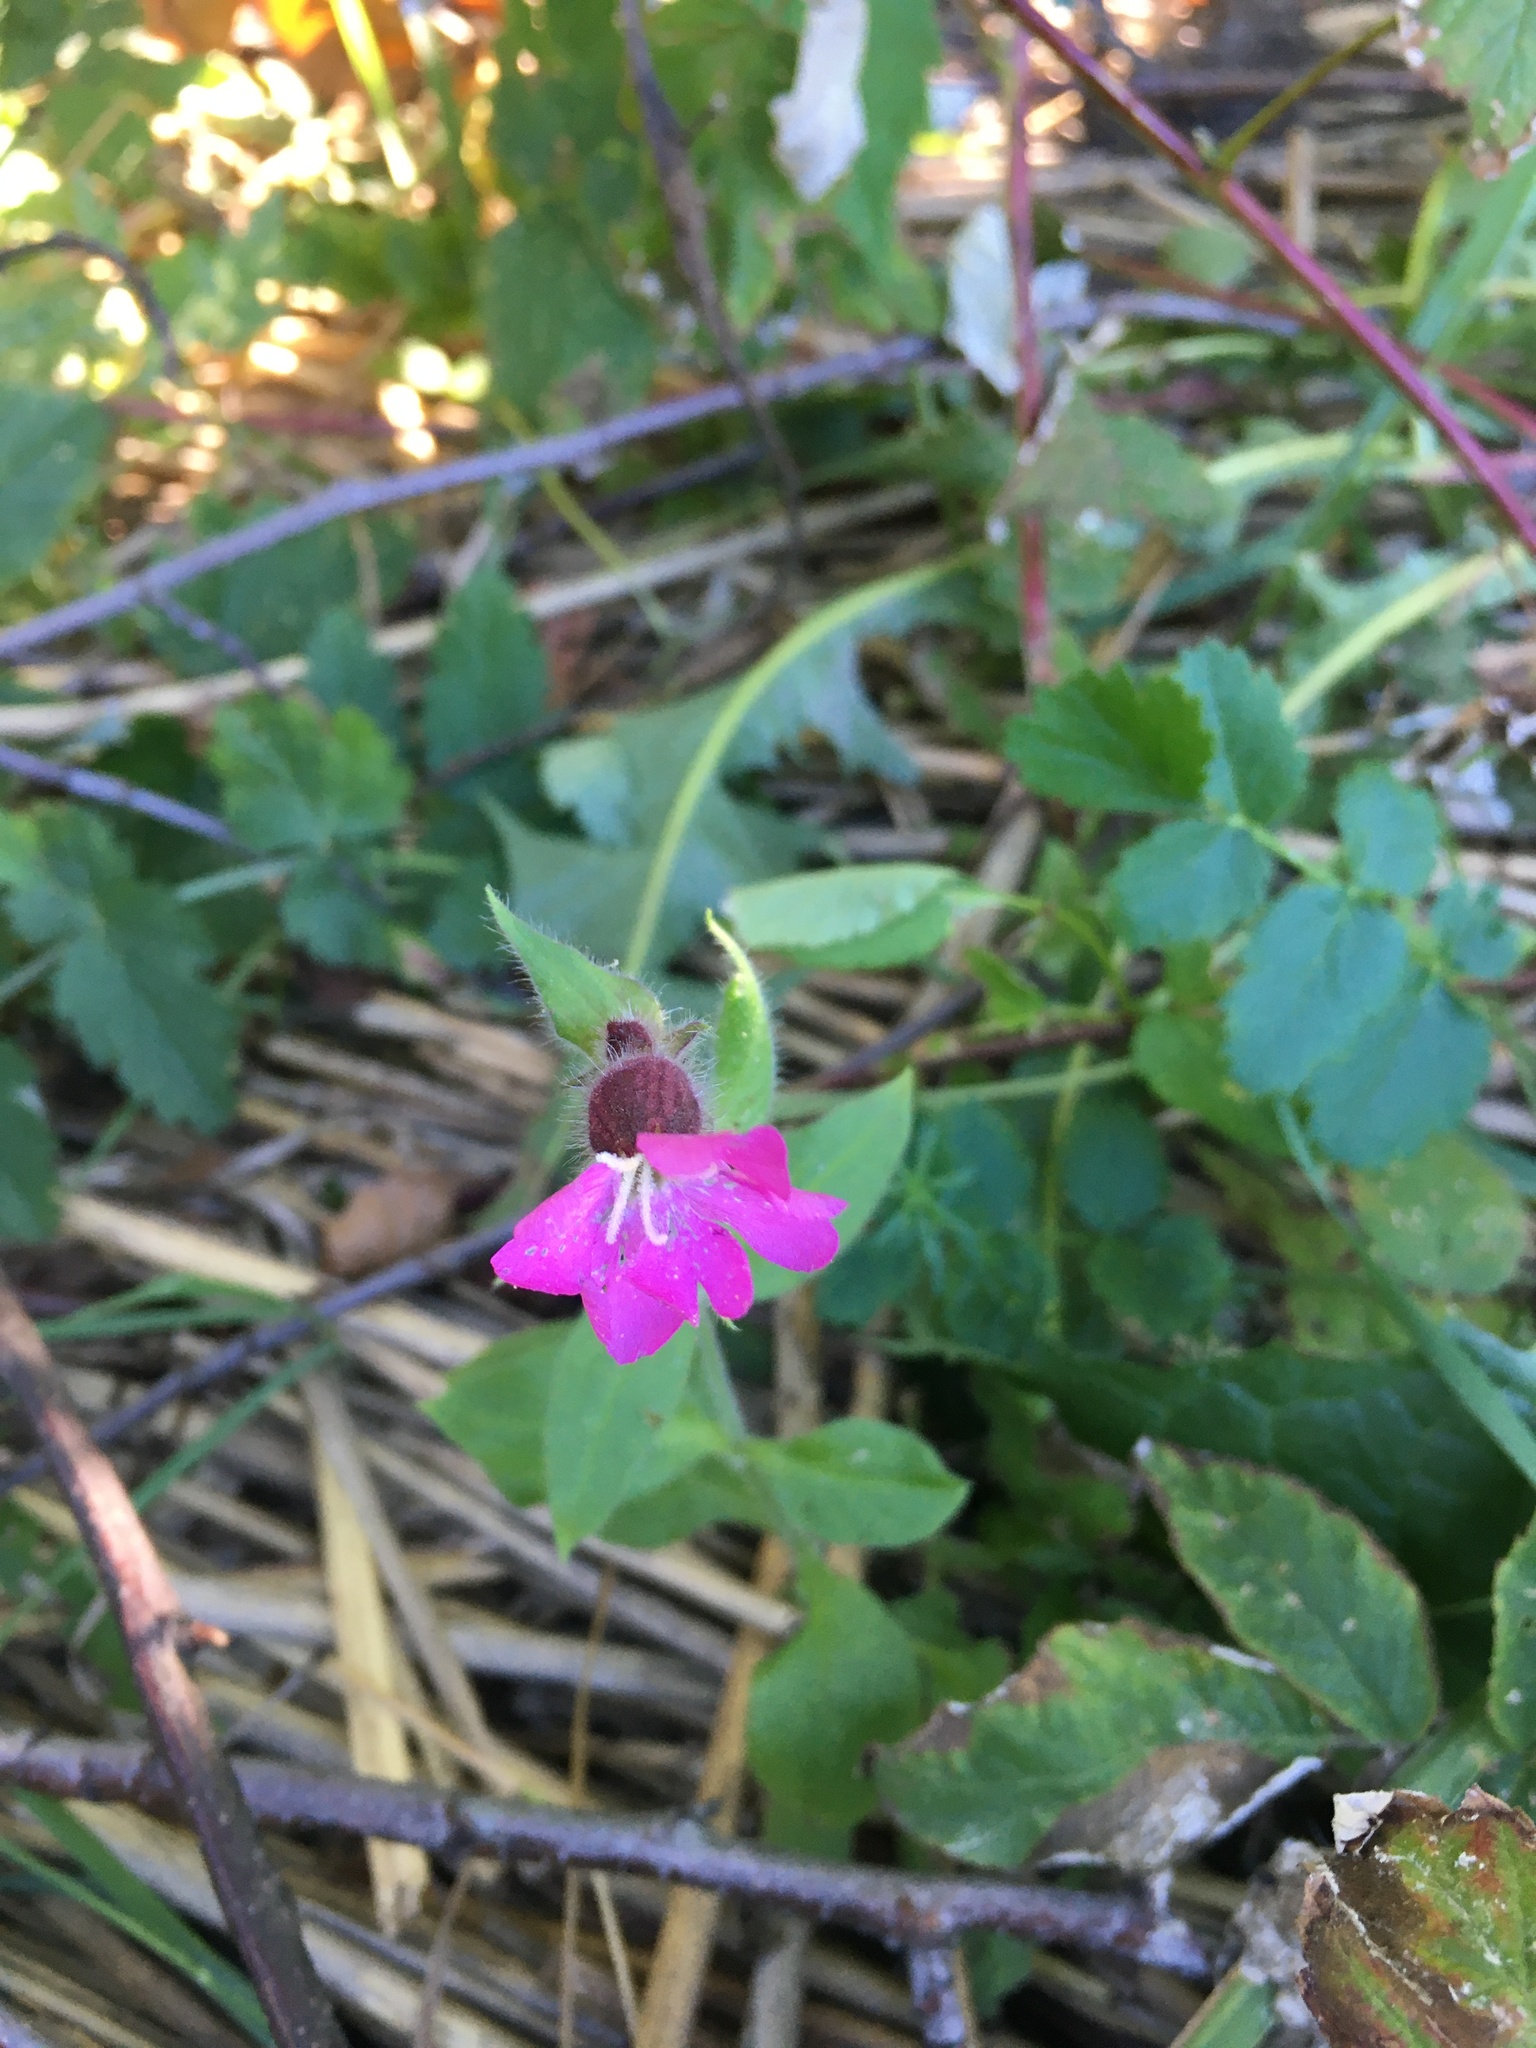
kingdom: Plantae
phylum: Tracheophyta
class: Magnoliopsida
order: Caryophyllales
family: Caryophyllaceae
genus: Silene
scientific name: Silene dioica
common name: Red campion
